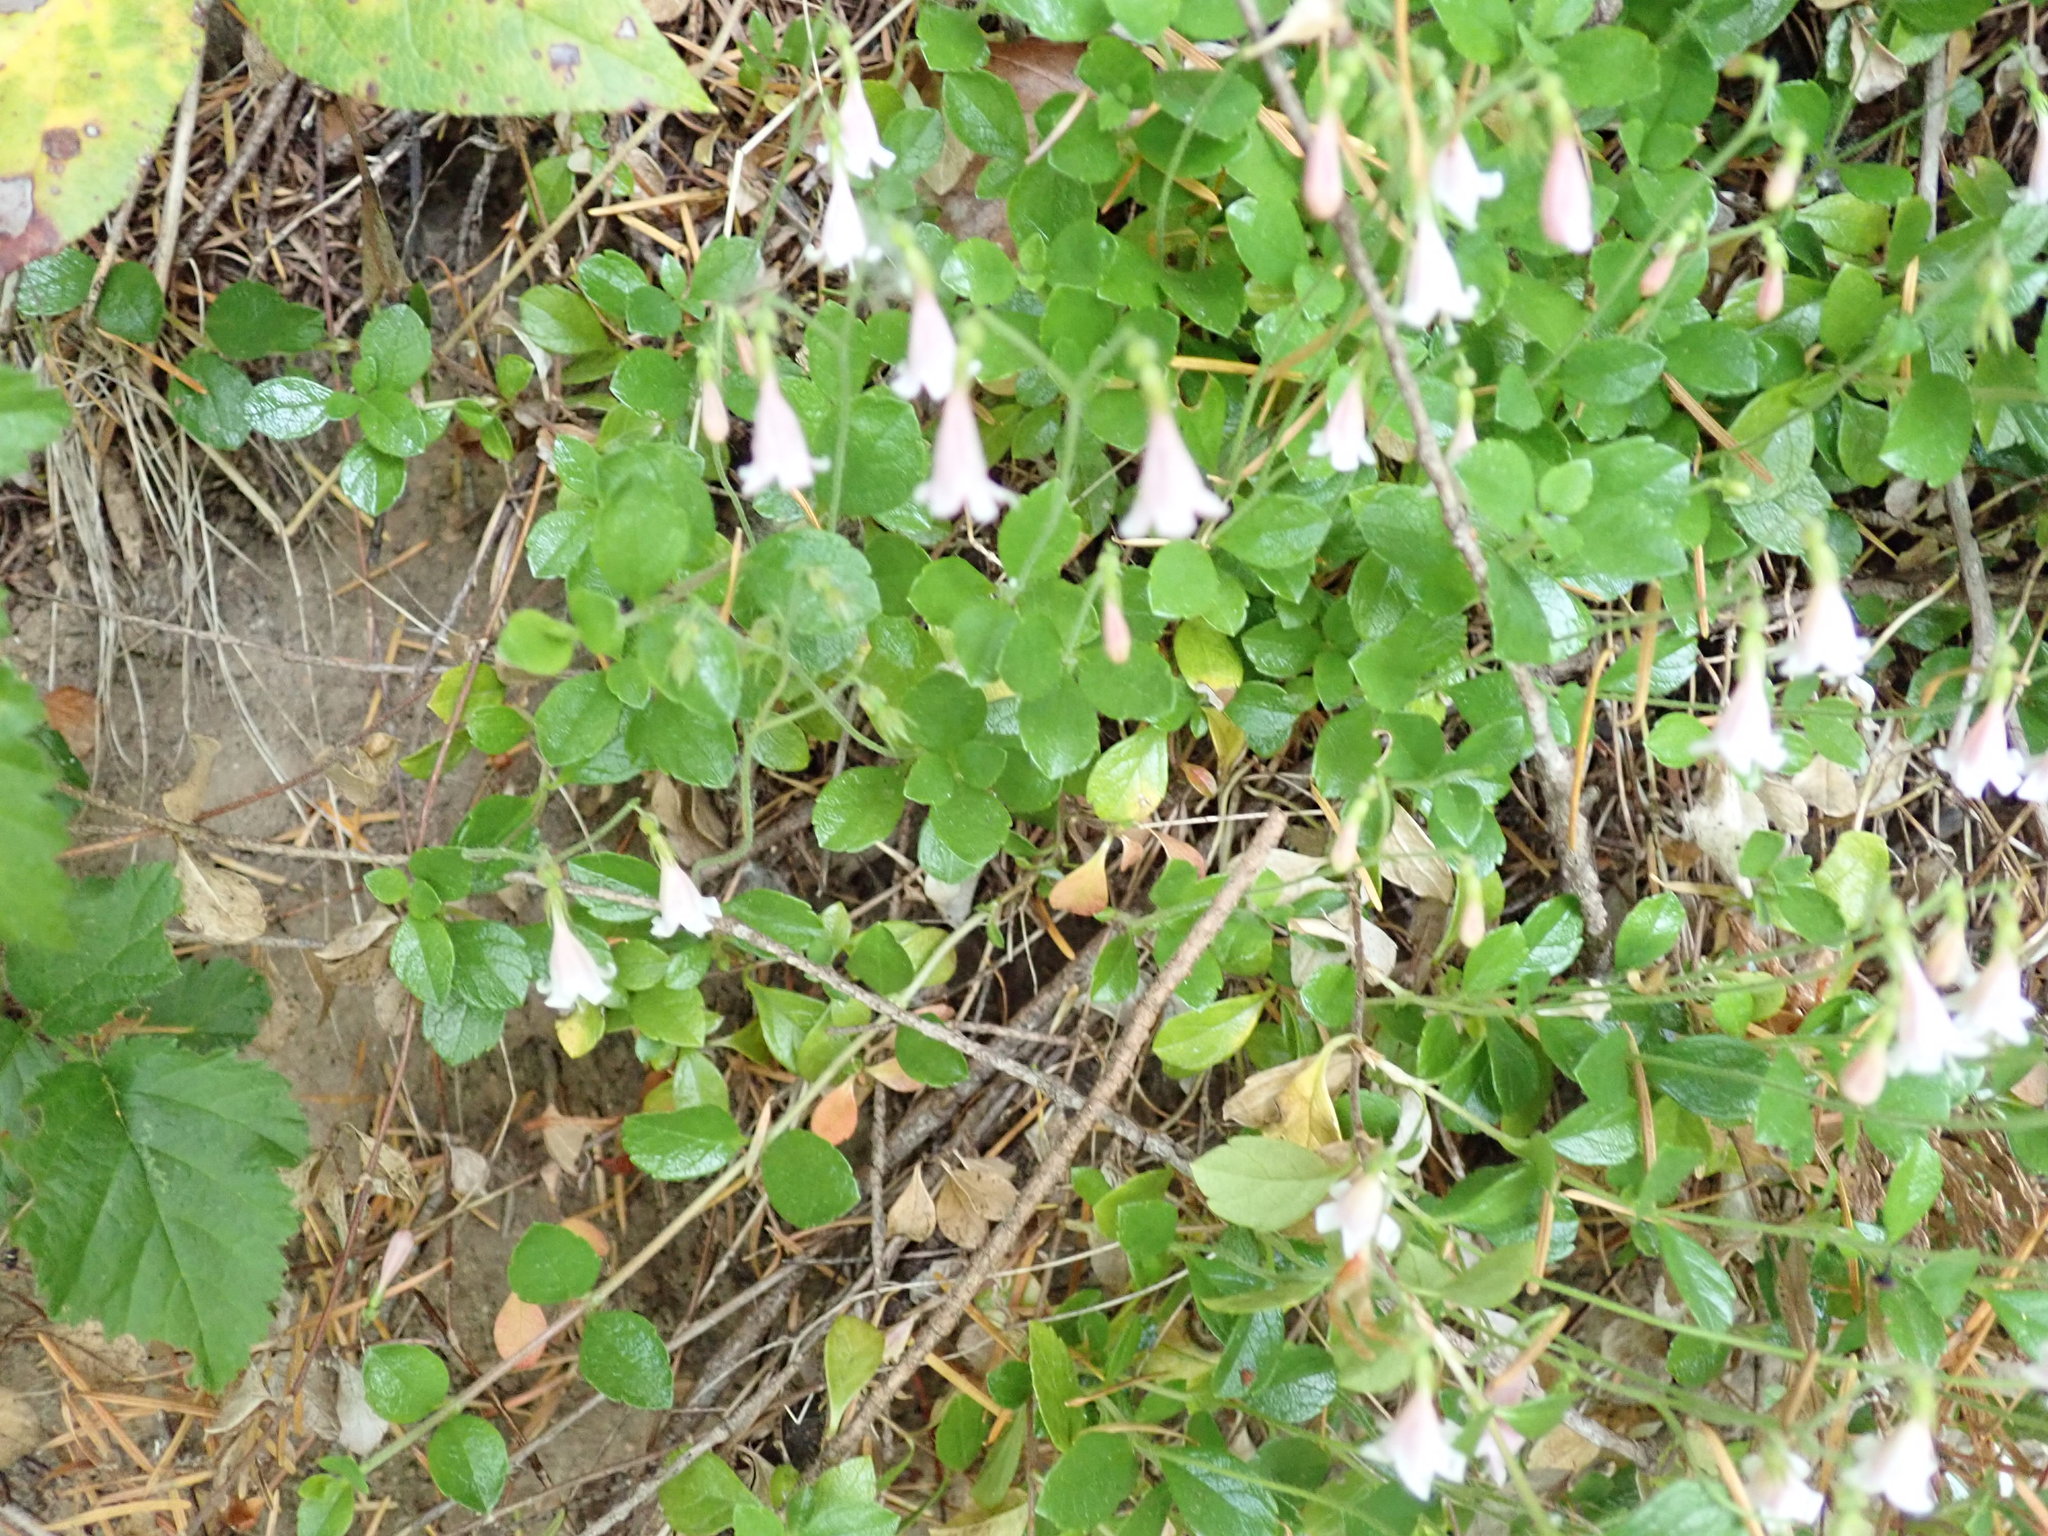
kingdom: Plantae
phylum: Tracheophyta
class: Magnoliopsida
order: Dipsacales
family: Caprifoliaceae
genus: Linnaea
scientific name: Linnaea borealis
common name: Twinflower
